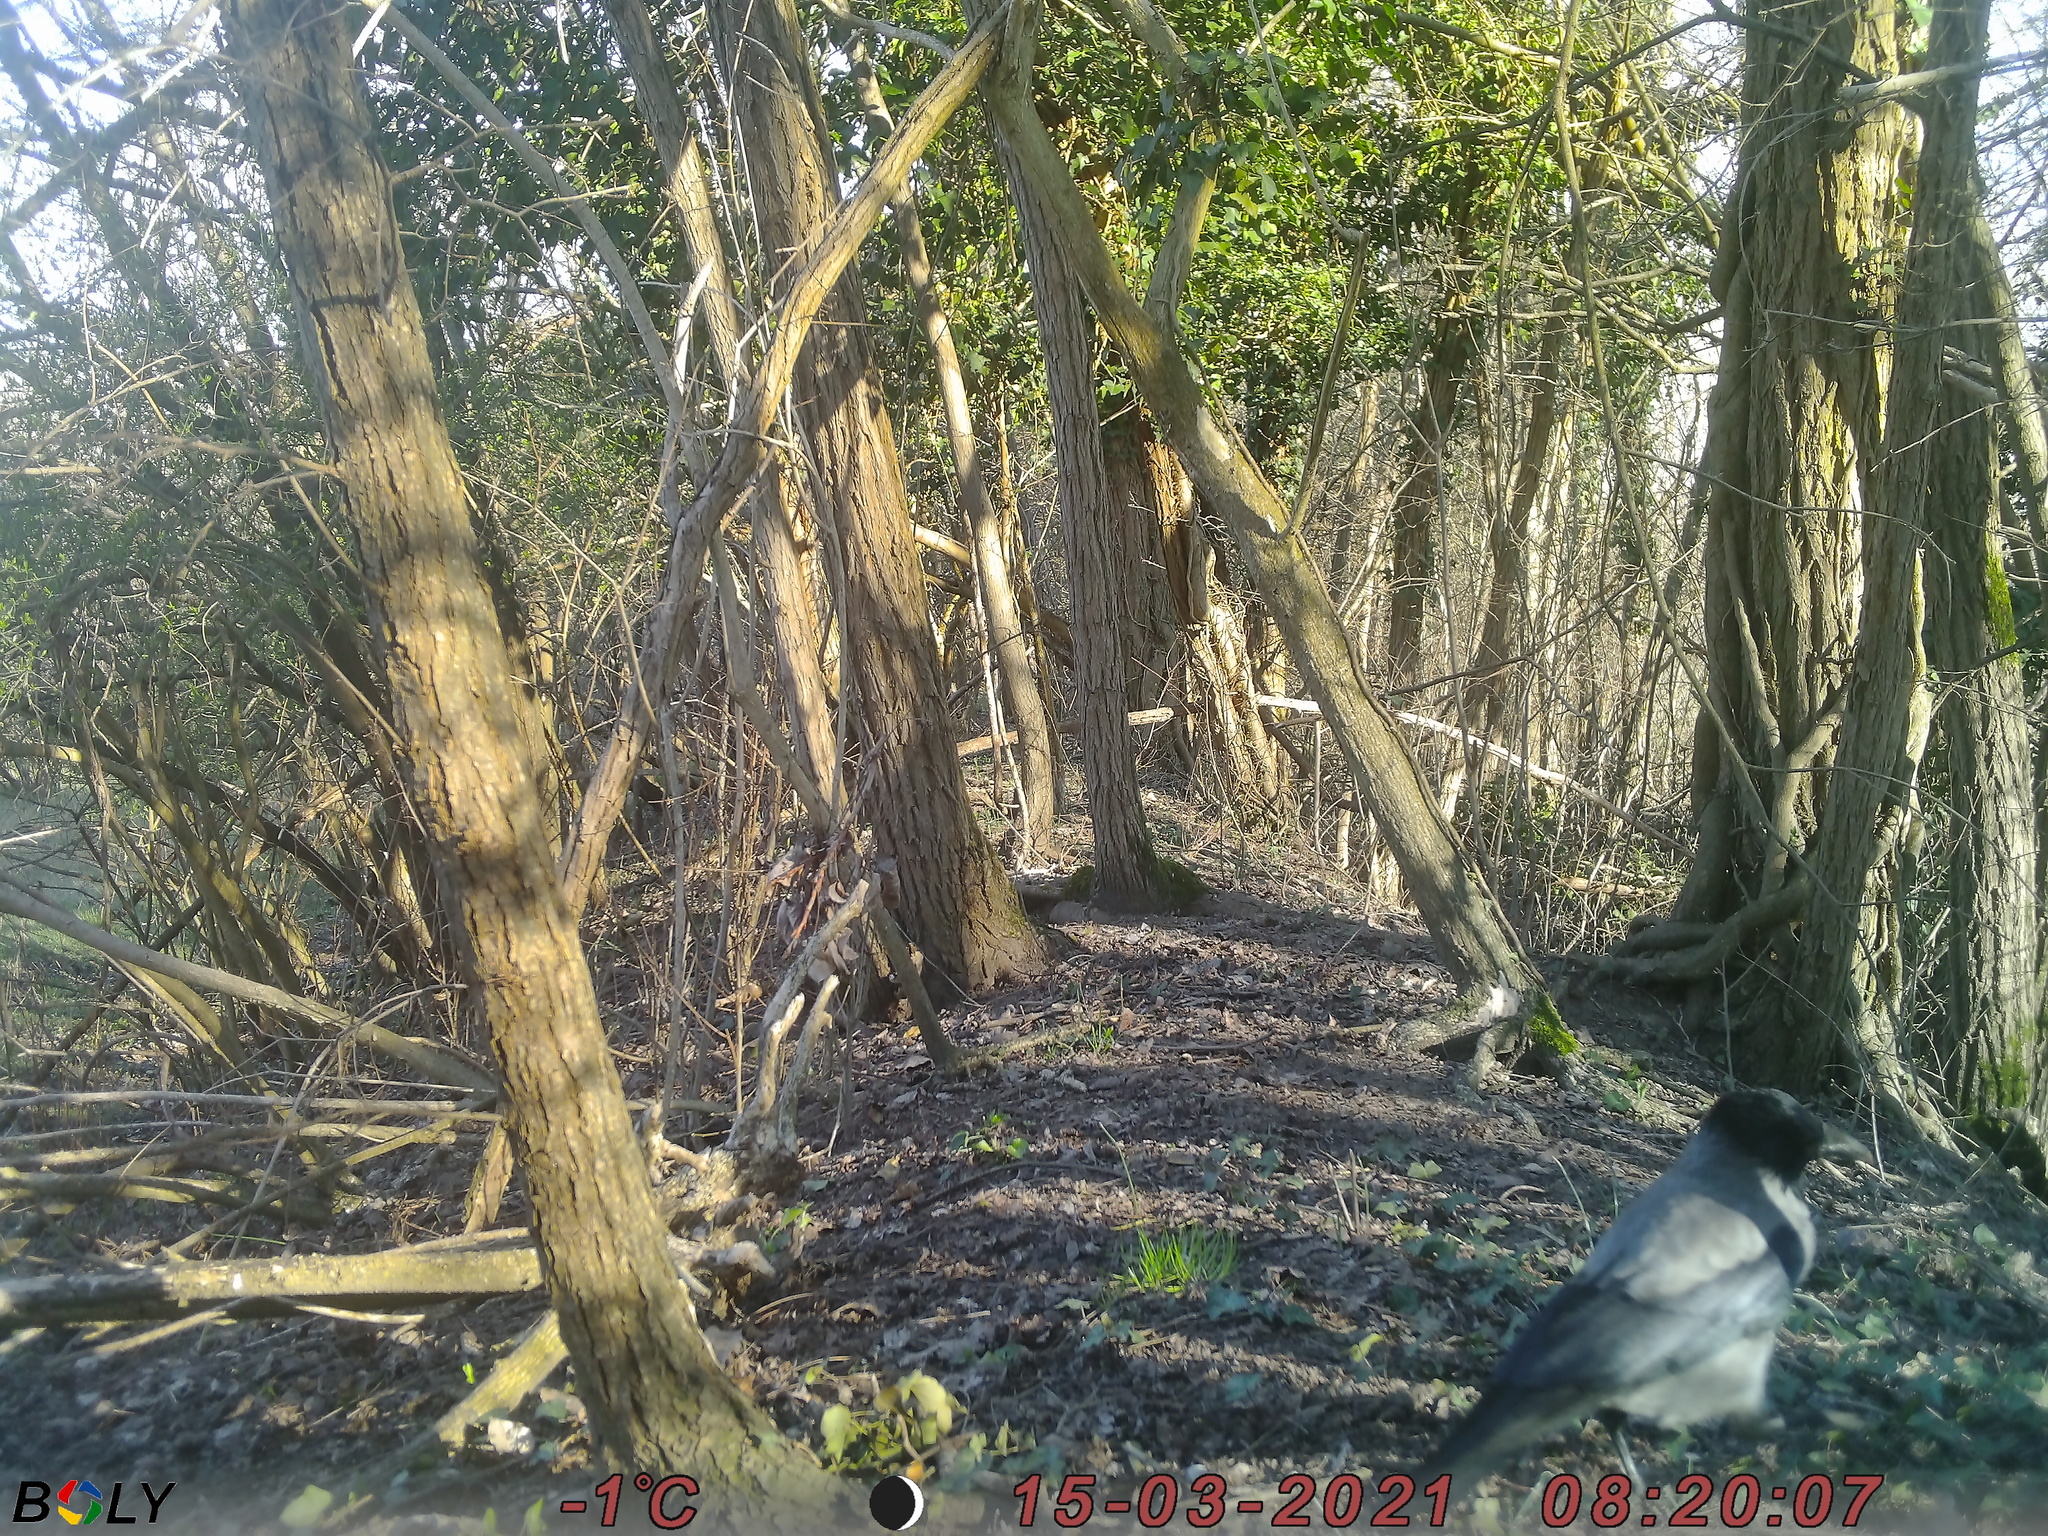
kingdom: Animalia
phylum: Chordata
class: Aves
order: Passeriformes
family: Corvidae
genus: Corvus
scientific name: Corvus cornix
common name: Hooded crow
